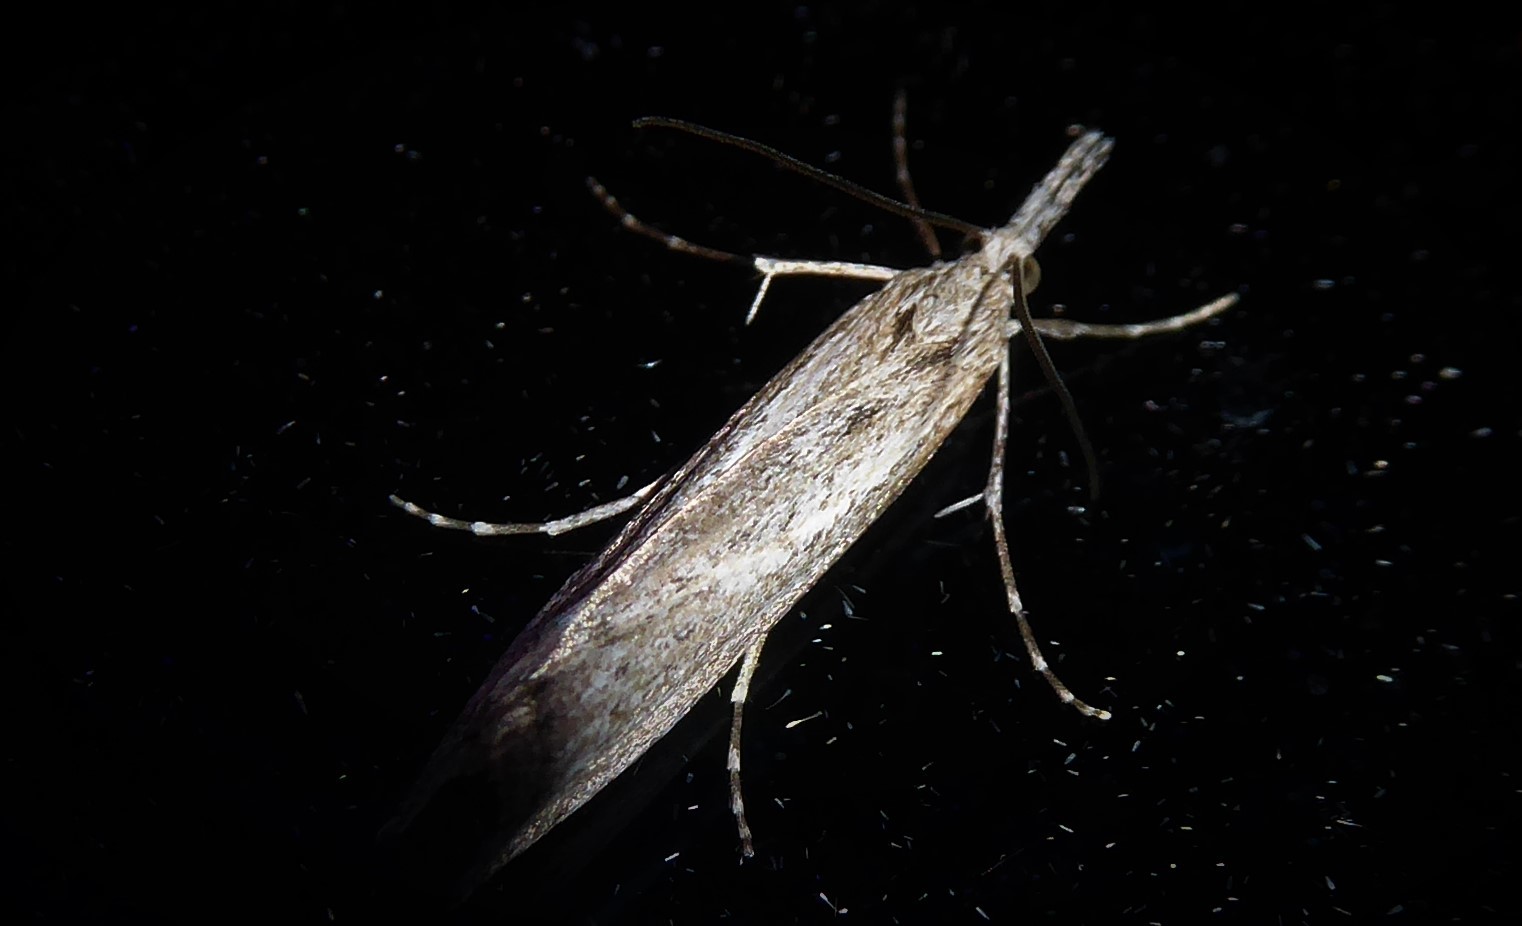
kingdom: Animalia
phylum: Arthropoda
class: Insecta
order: Lepidoptera
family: Crambidae
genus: Orocrambus
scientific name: Orocrambus cyclopicus
